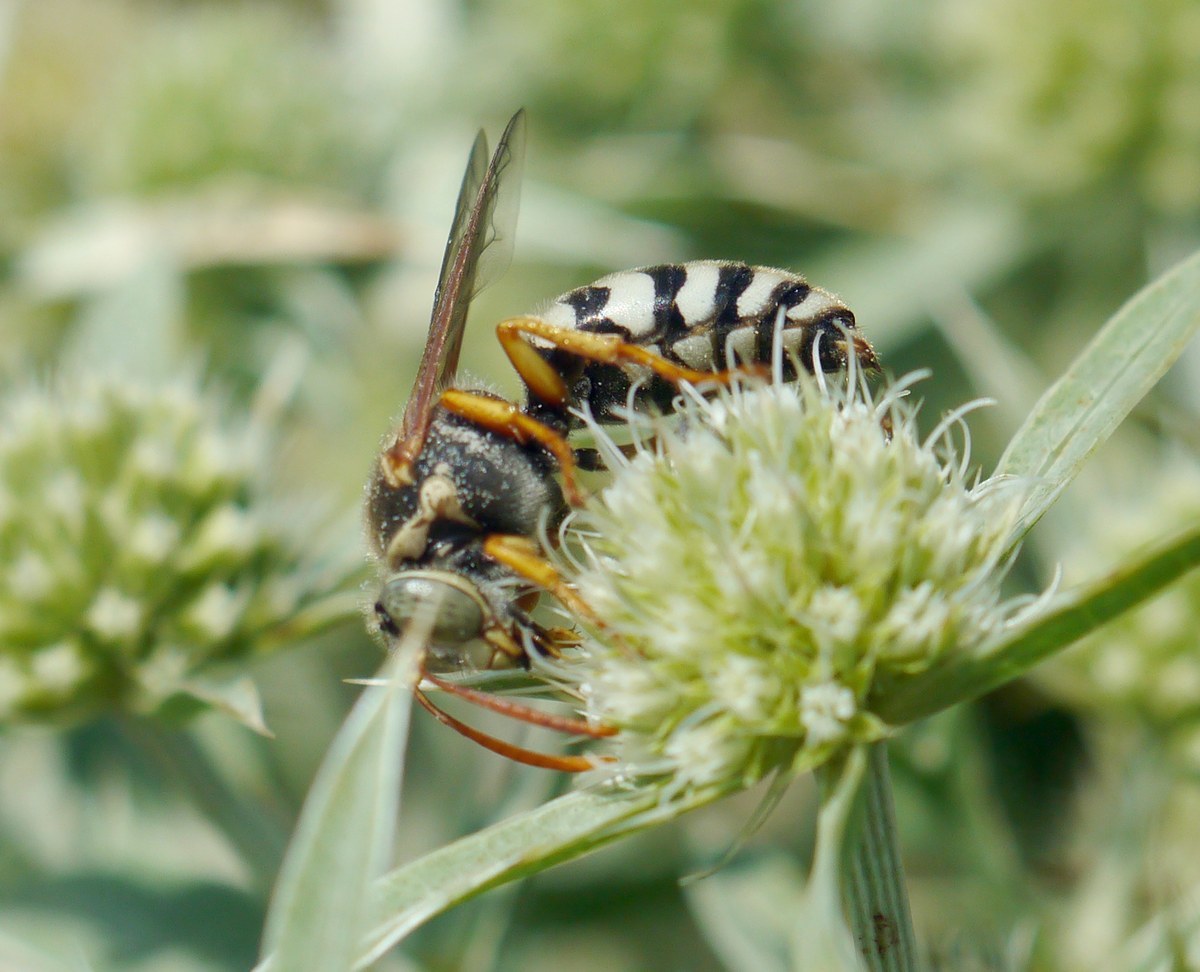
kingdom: Animalia
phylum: Arthropoda
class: Insecta
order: Hymenoptera
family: Crabronidae
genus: Stizus
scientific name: Stizus bipunctatus
